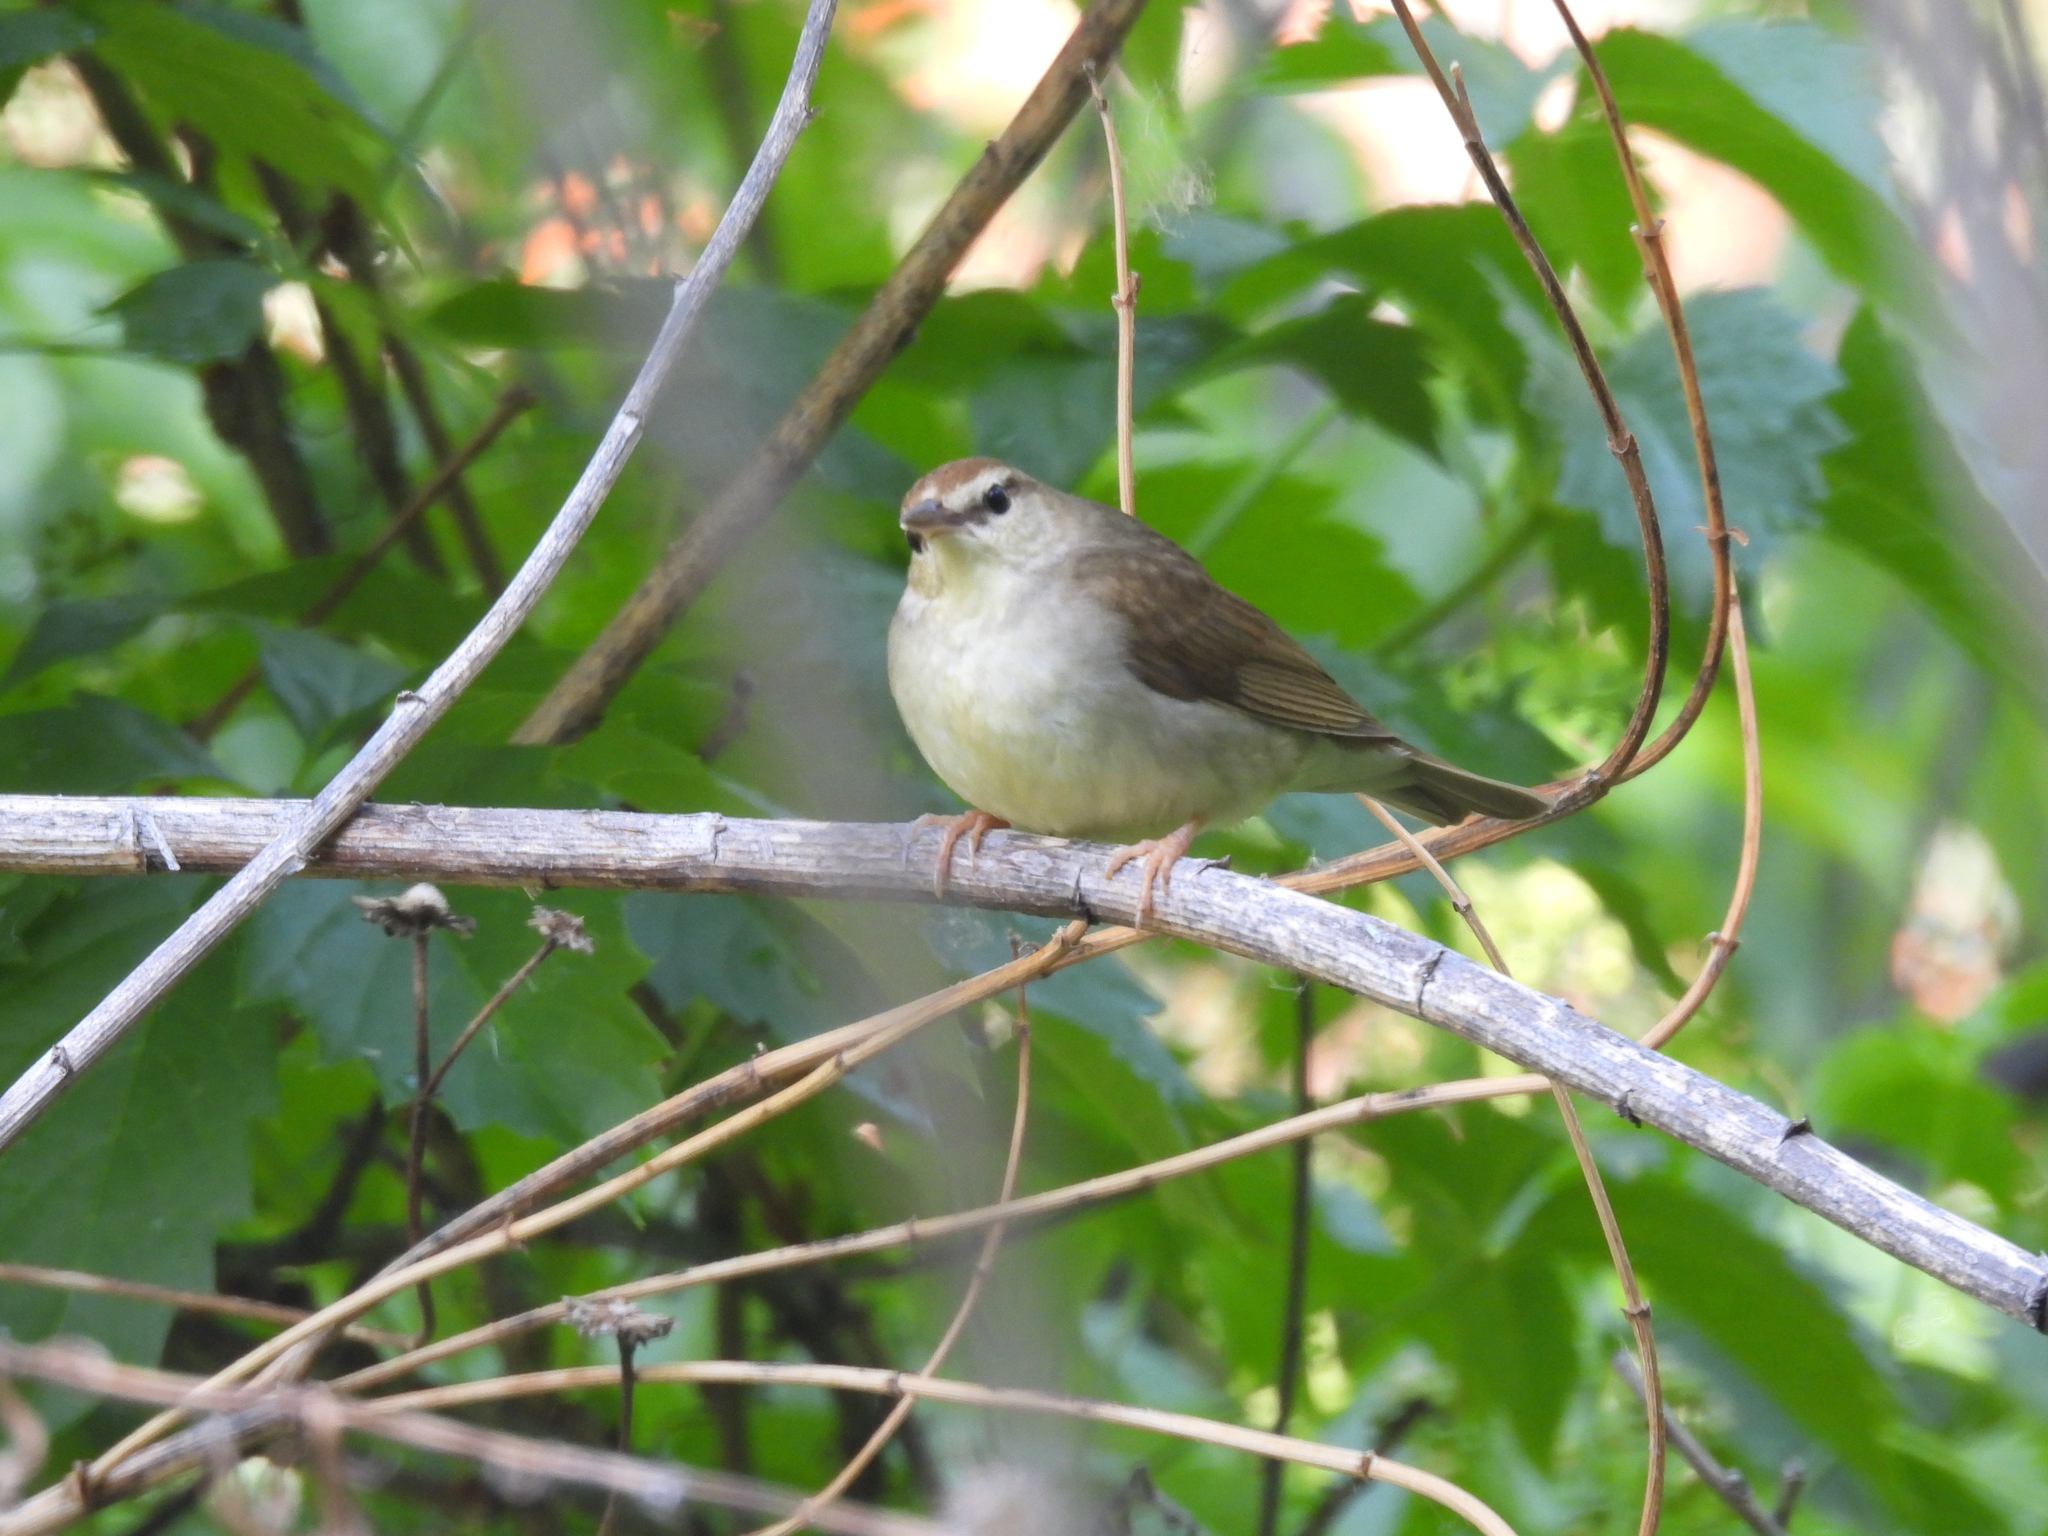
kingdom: Animalia
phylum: Chordata
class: Aves
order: Passeriformes
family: Parulidae
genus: Limnothlypis
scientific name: Limnothlypis swainsonii
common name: Swainson's warbler
